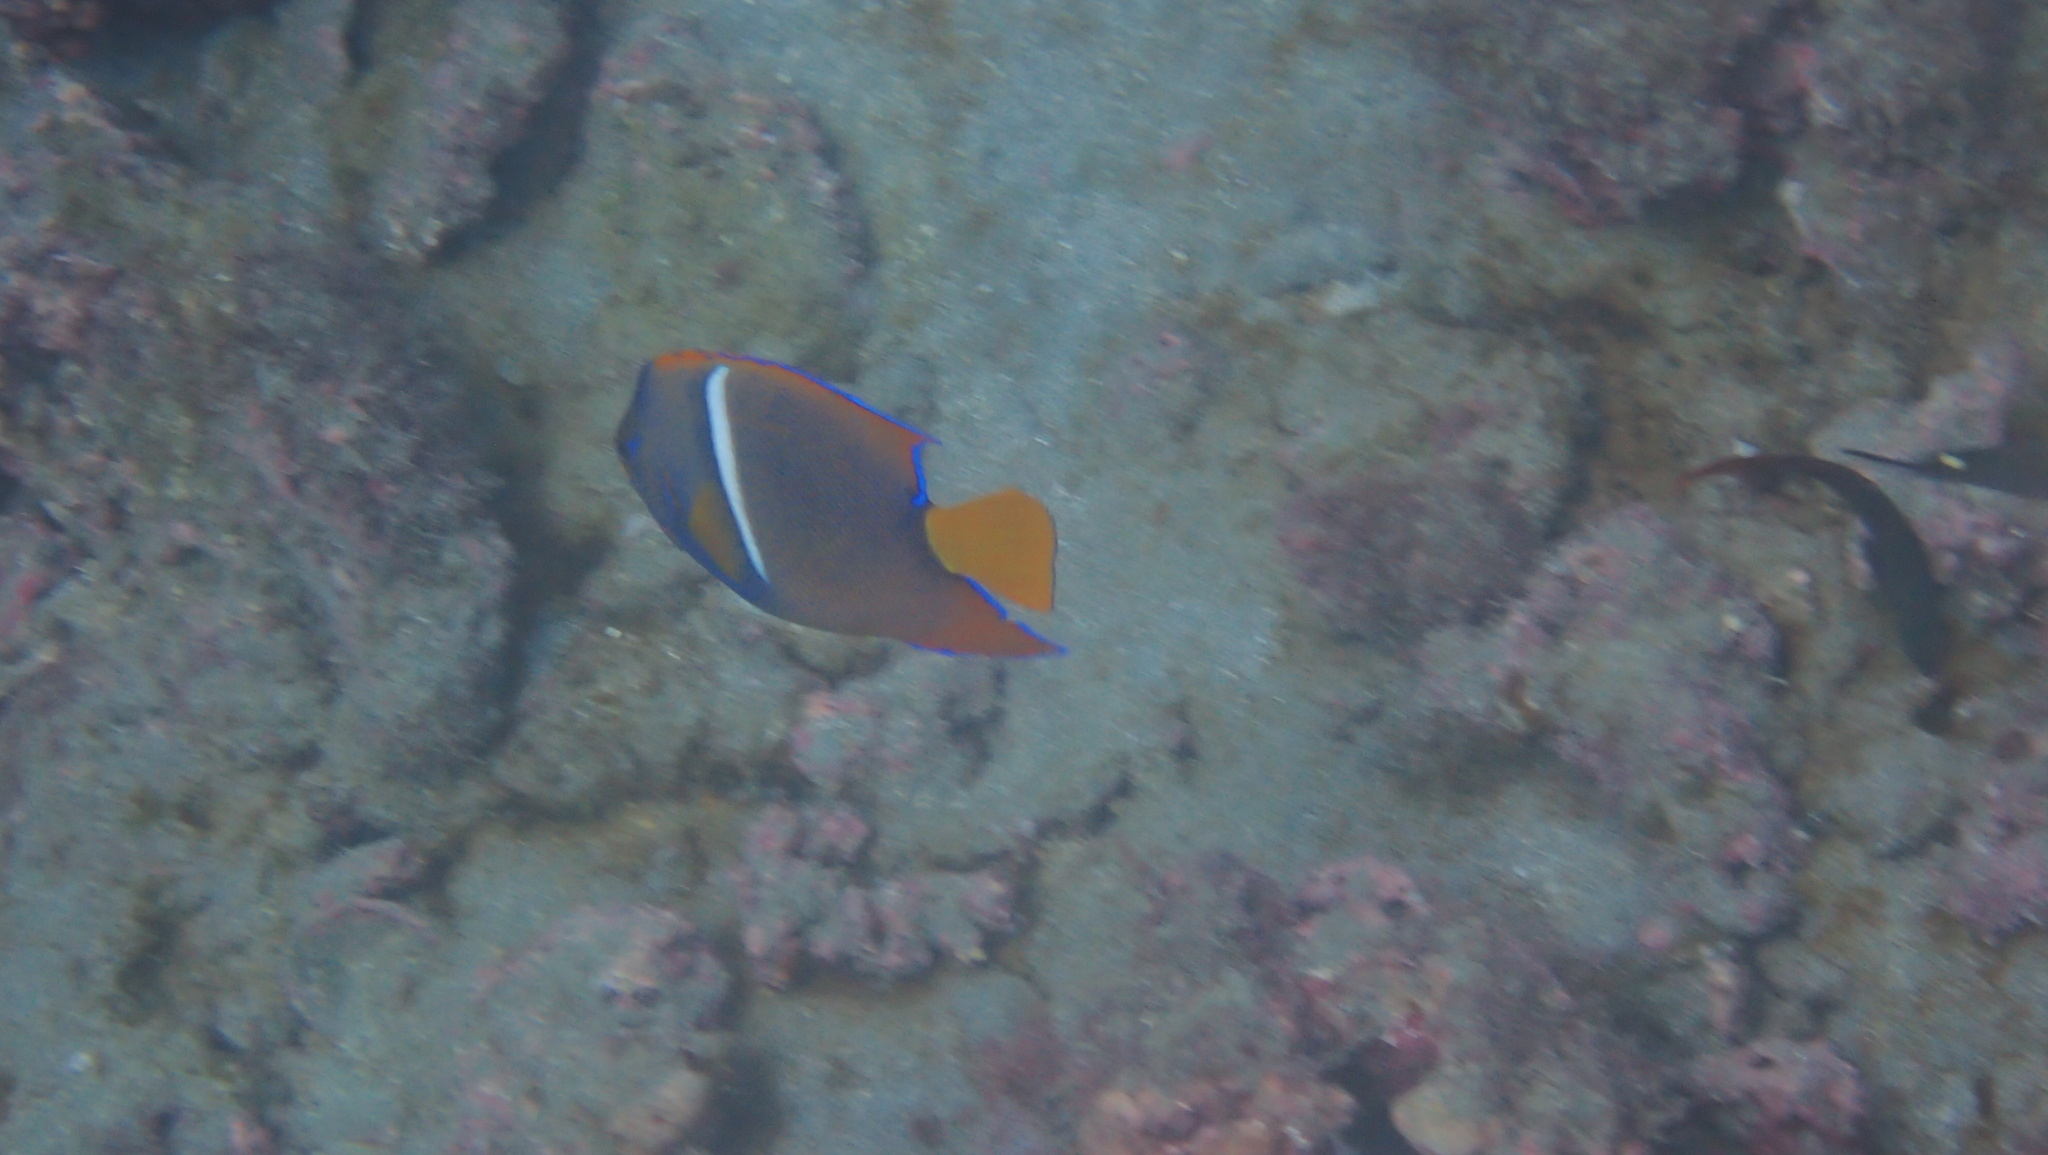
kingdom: Animalia
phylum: Chordata
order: Perciformes
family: Pomacanthidae
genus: Holacanthus
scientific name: Holacanthus passer
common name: King angelfish
